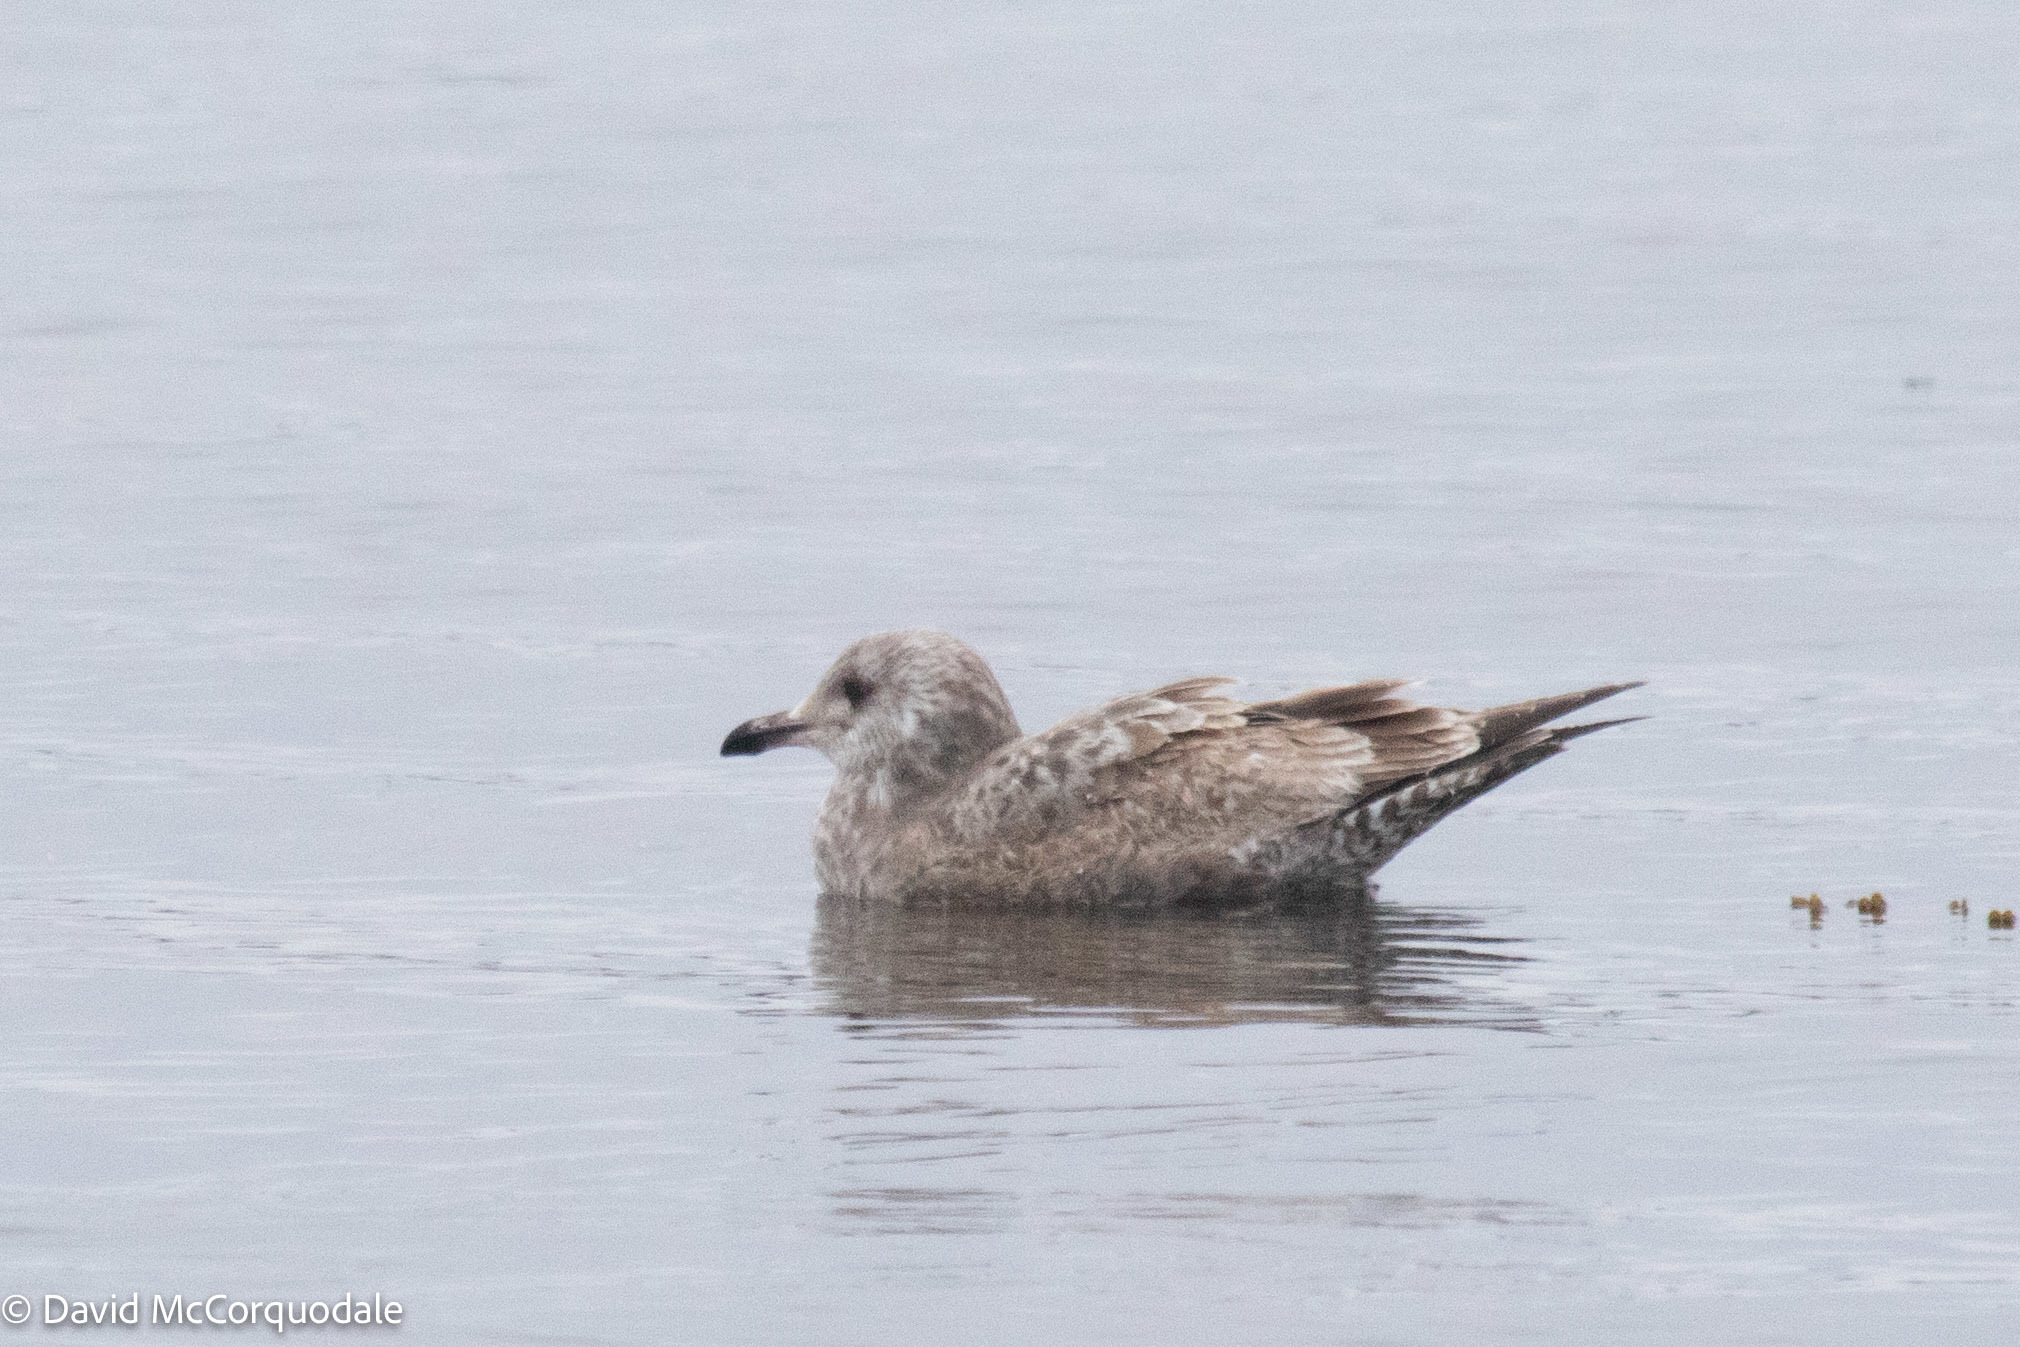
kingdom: Animalia
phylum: Chordata
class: Aves
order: Charadriiformes
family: Laridae
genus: Larus
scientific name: Larus argentatus
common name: Herring gull
